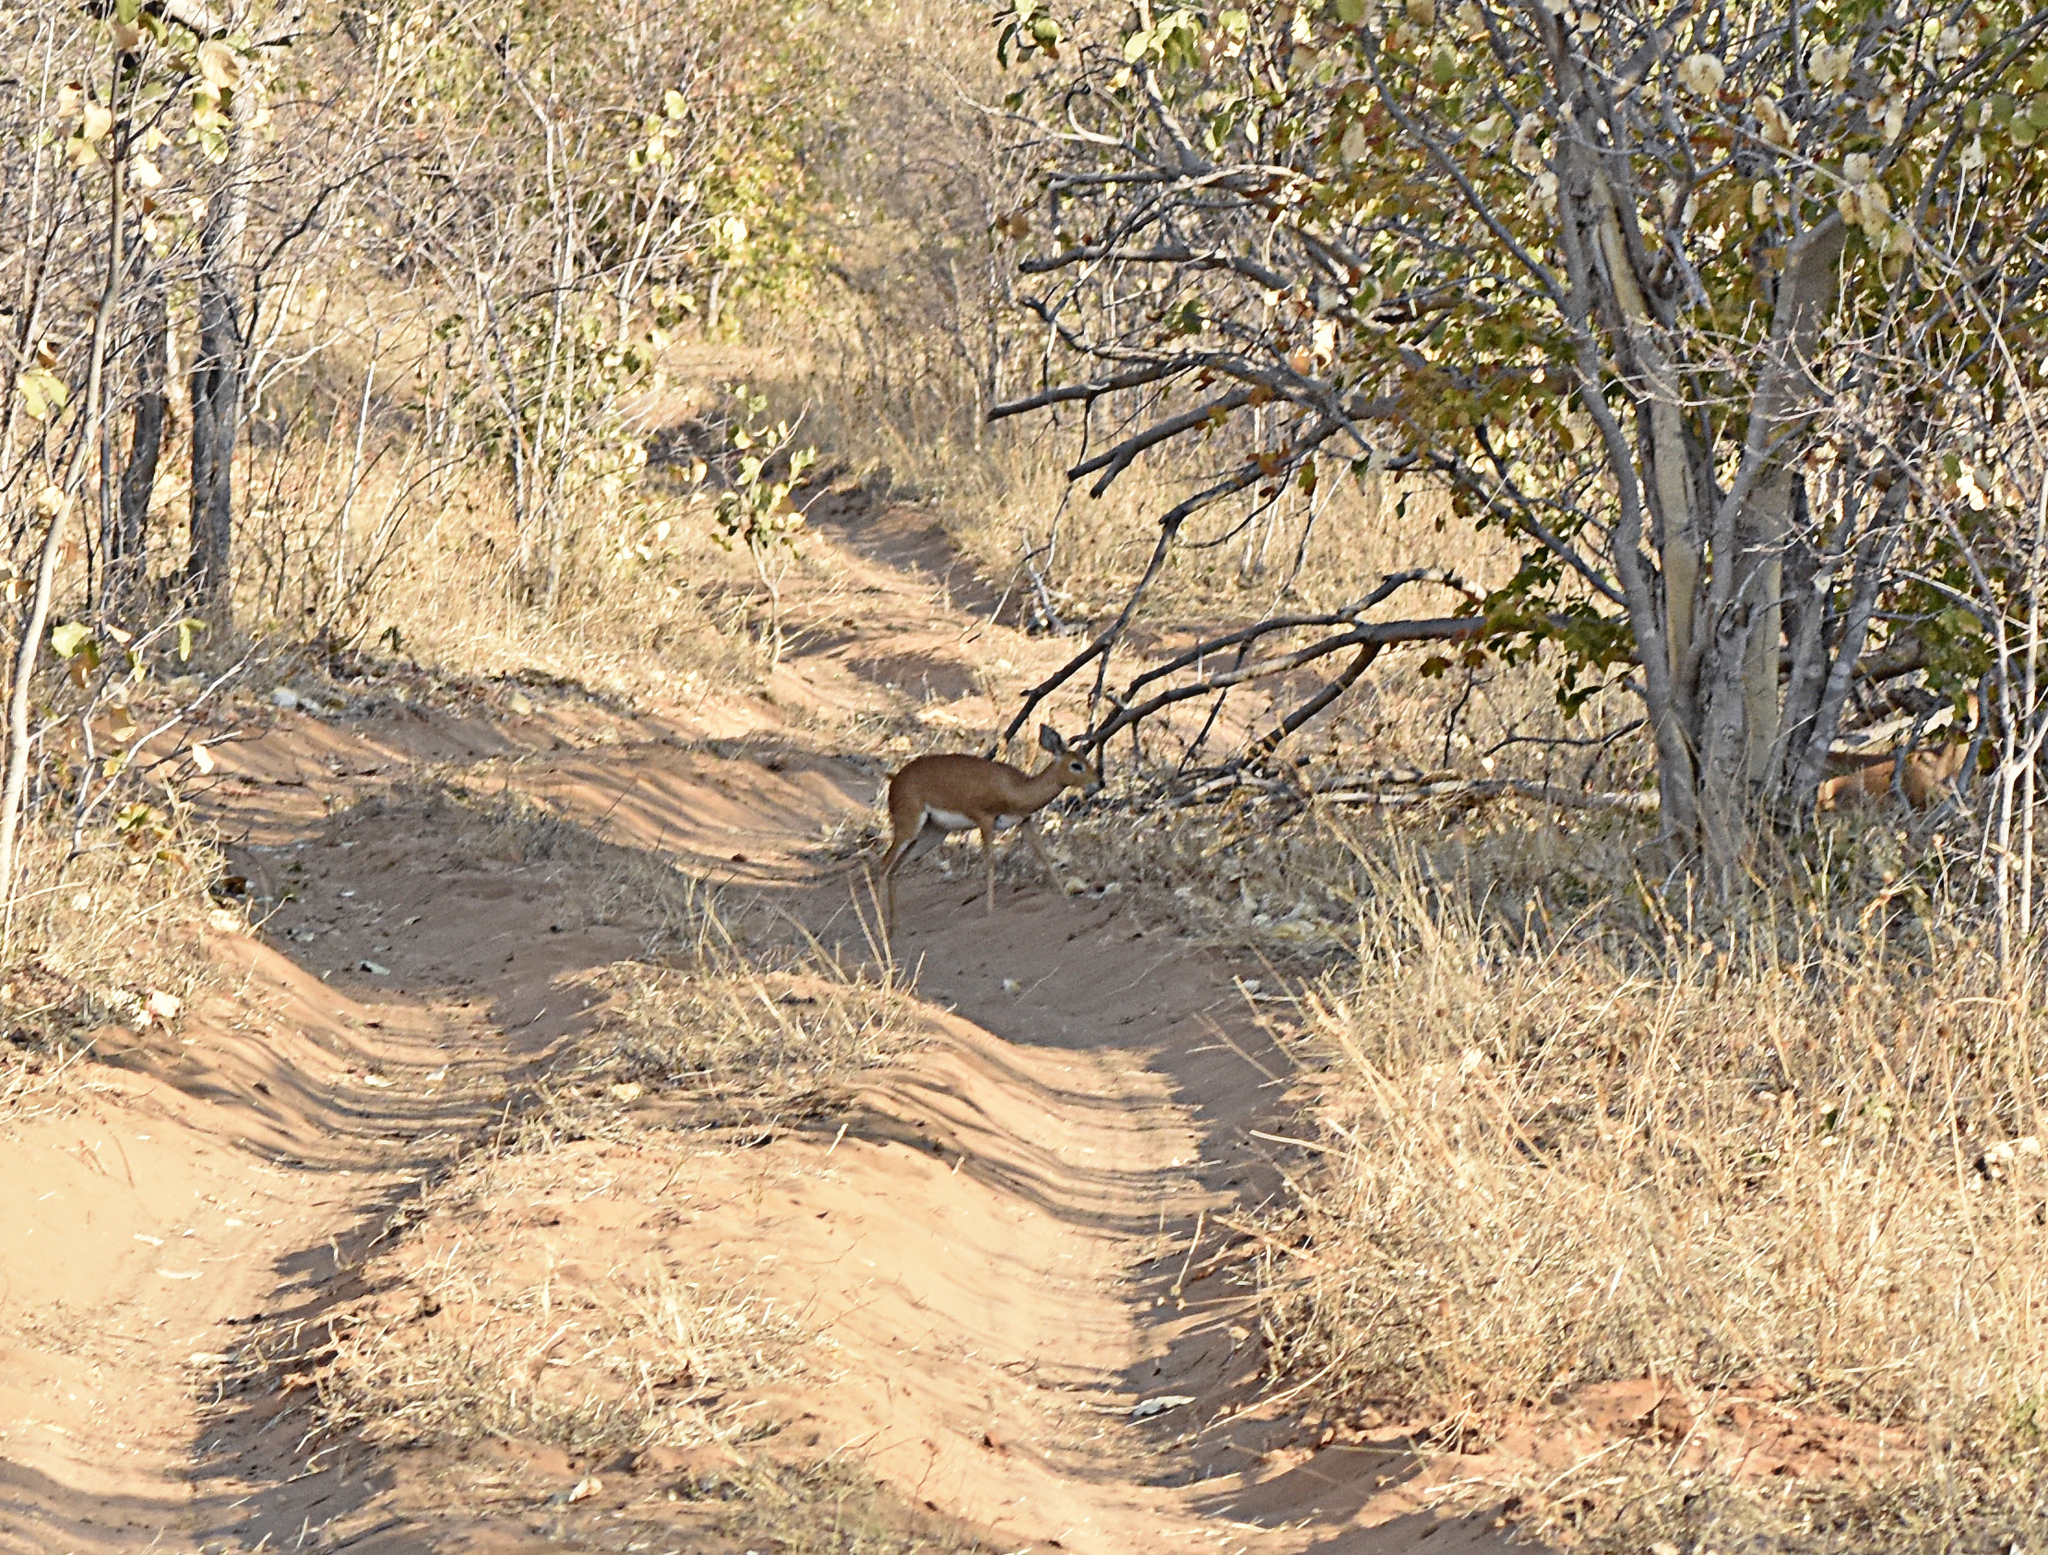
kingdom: Animalia
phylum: Chordata
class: Mammalia
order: Artiodactyla
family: Bovidae
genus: Raphicerus
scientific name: Raphicerus campestris
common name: Steenbok
